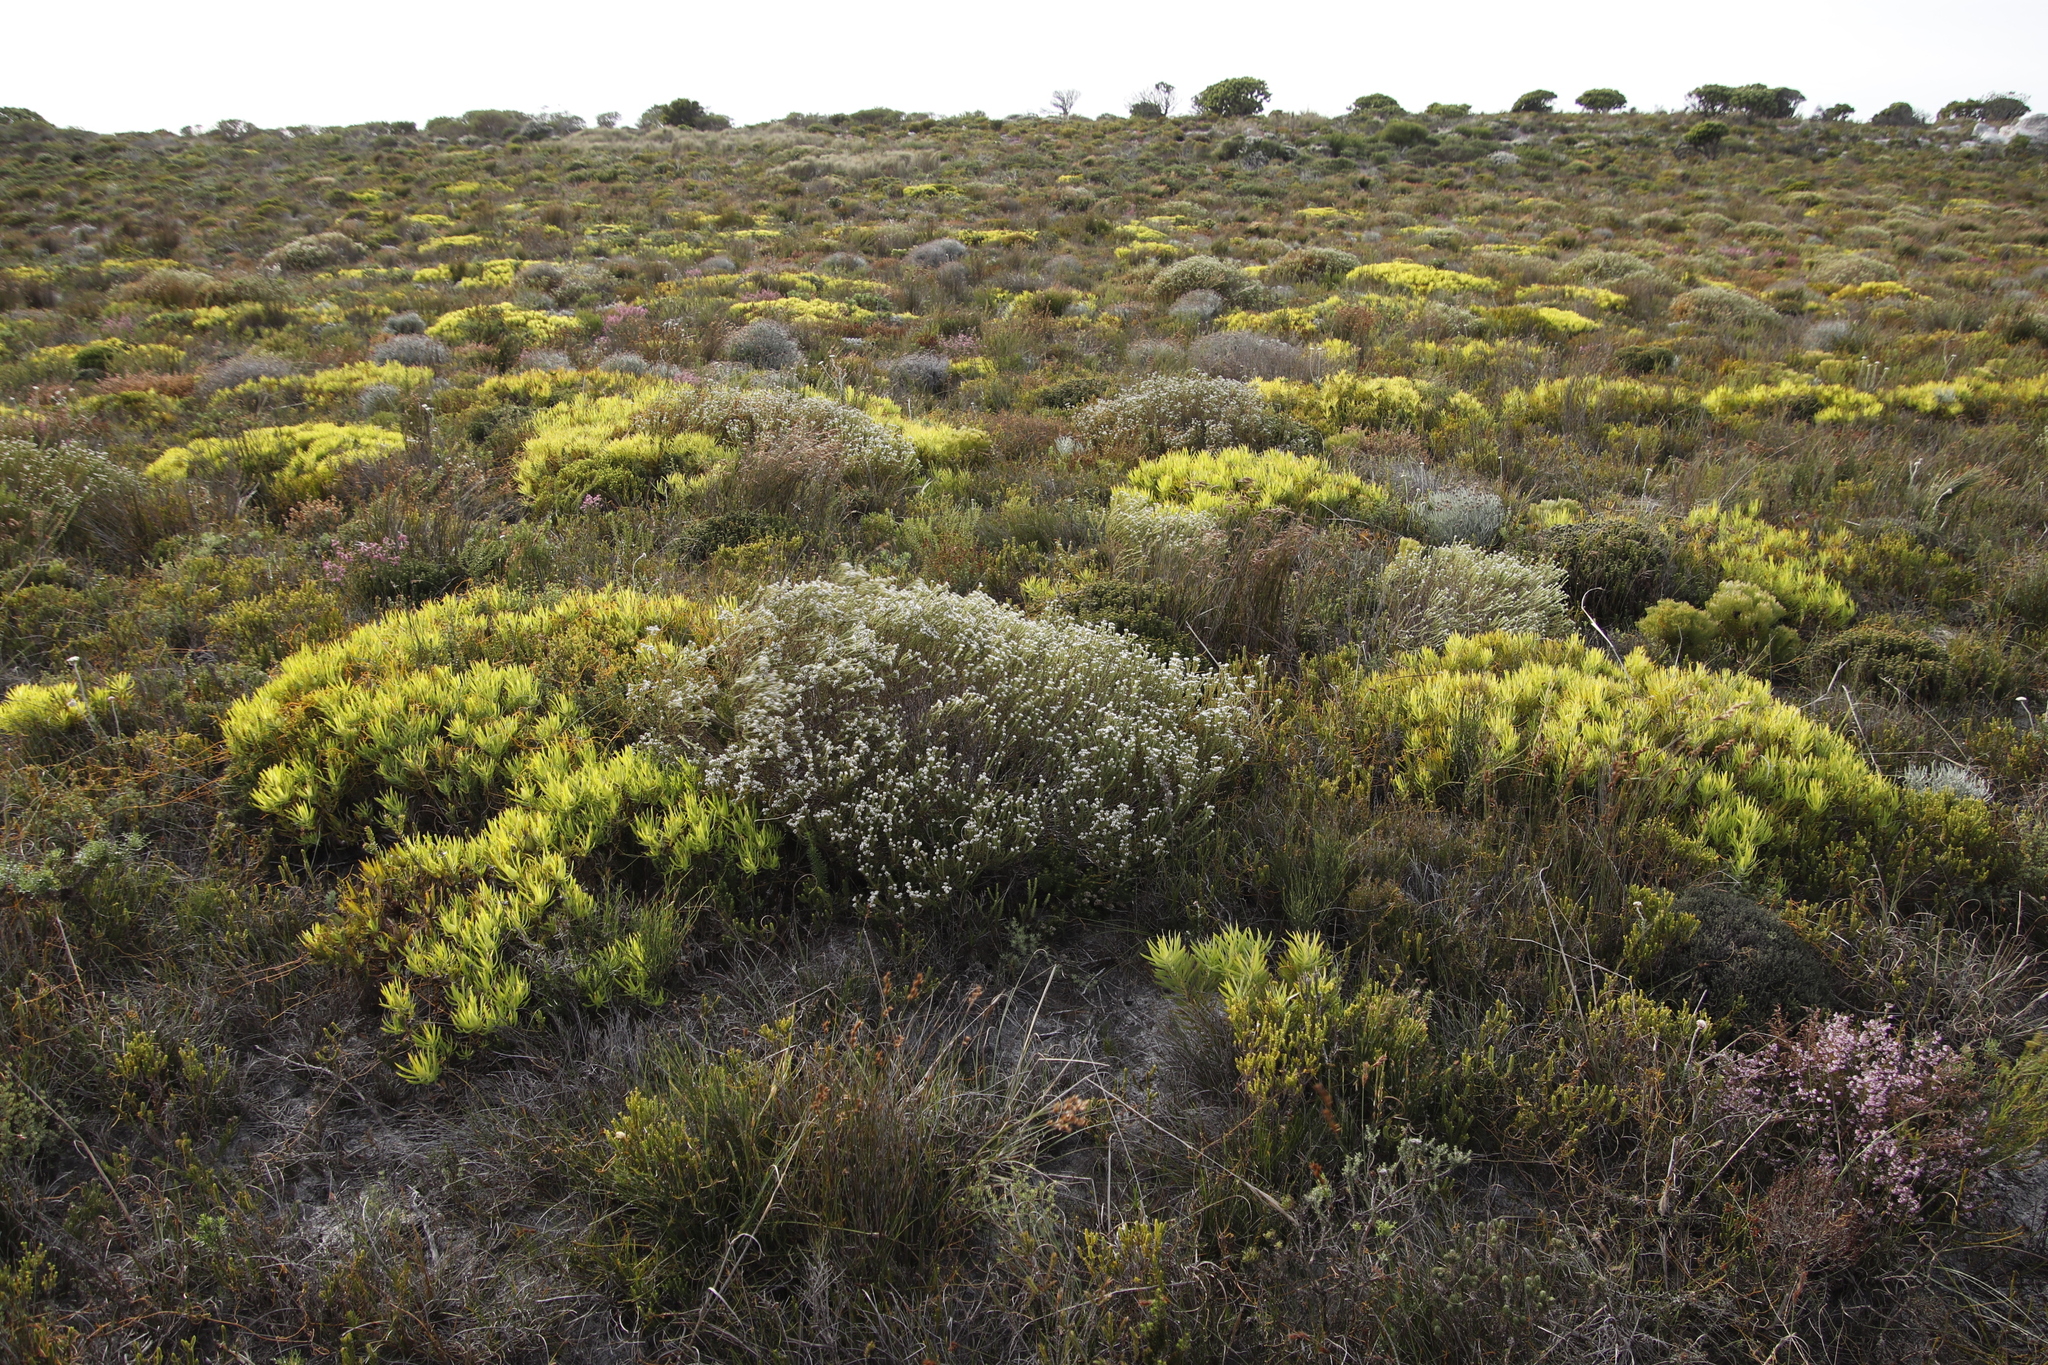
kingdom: Plantae
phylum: Tracheophyta
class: Magnoliopsida
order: Proteales
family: Proteaceae
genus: Leucadendron
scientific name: Leucadendron salignum
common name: Common sunshine conebush
